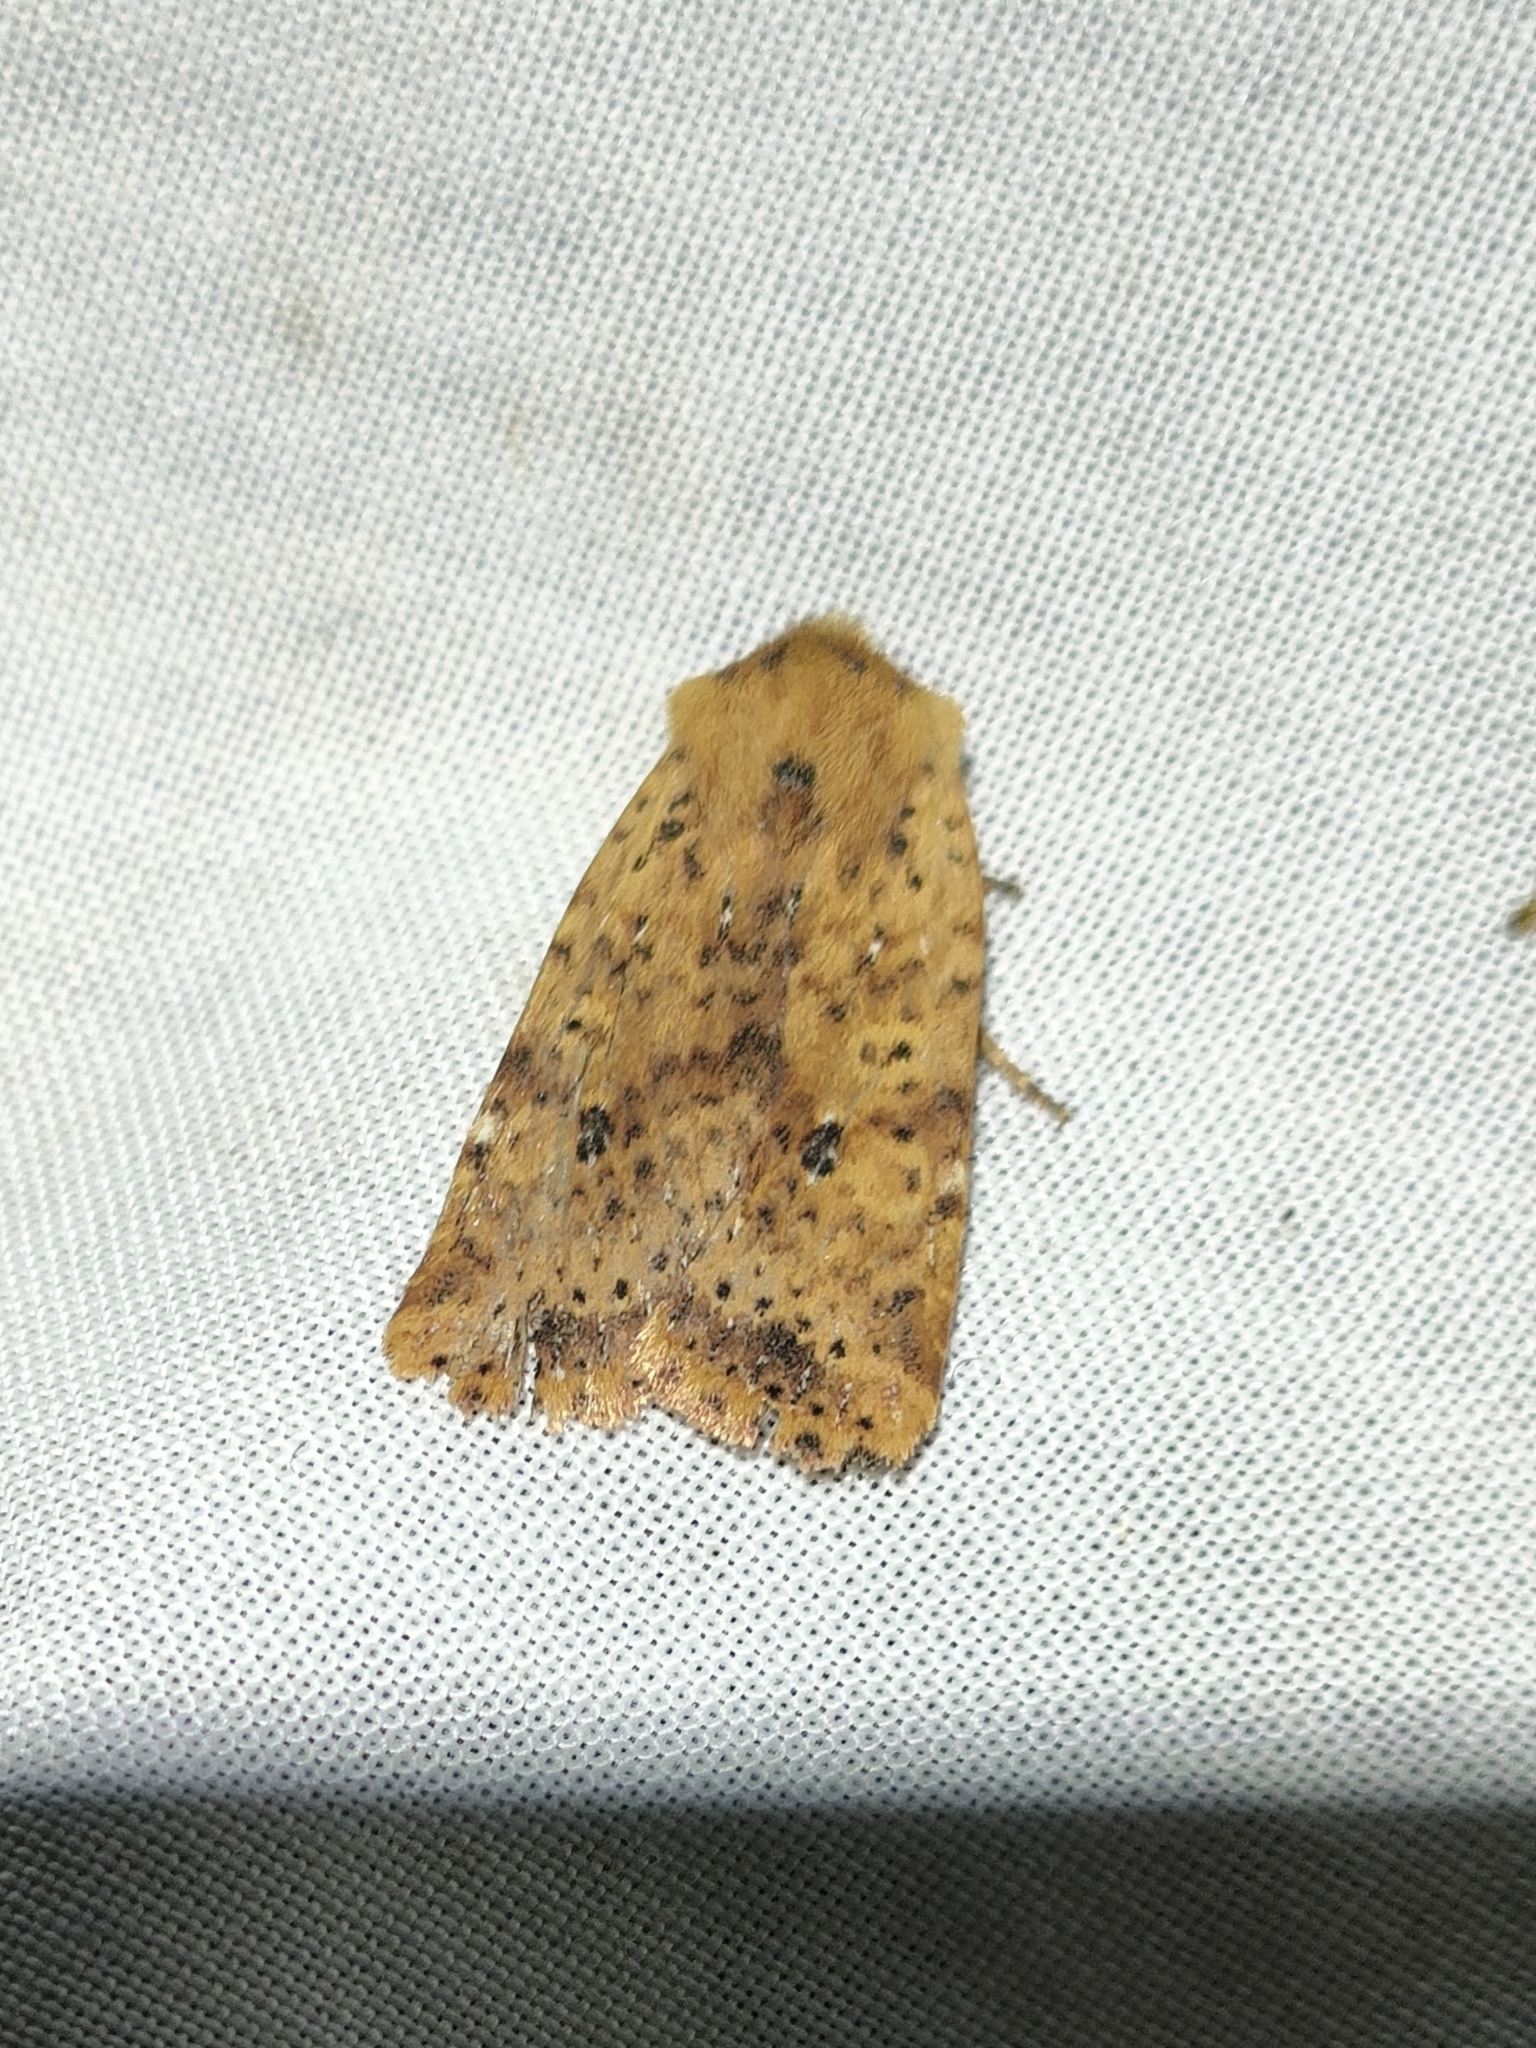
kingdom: Animalia
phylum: Arthropoda
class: Insecta
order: Lepidoptera
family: Noctuidae
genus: Conistra
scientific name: Conistra rubiginea
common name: Dotted chestnut
